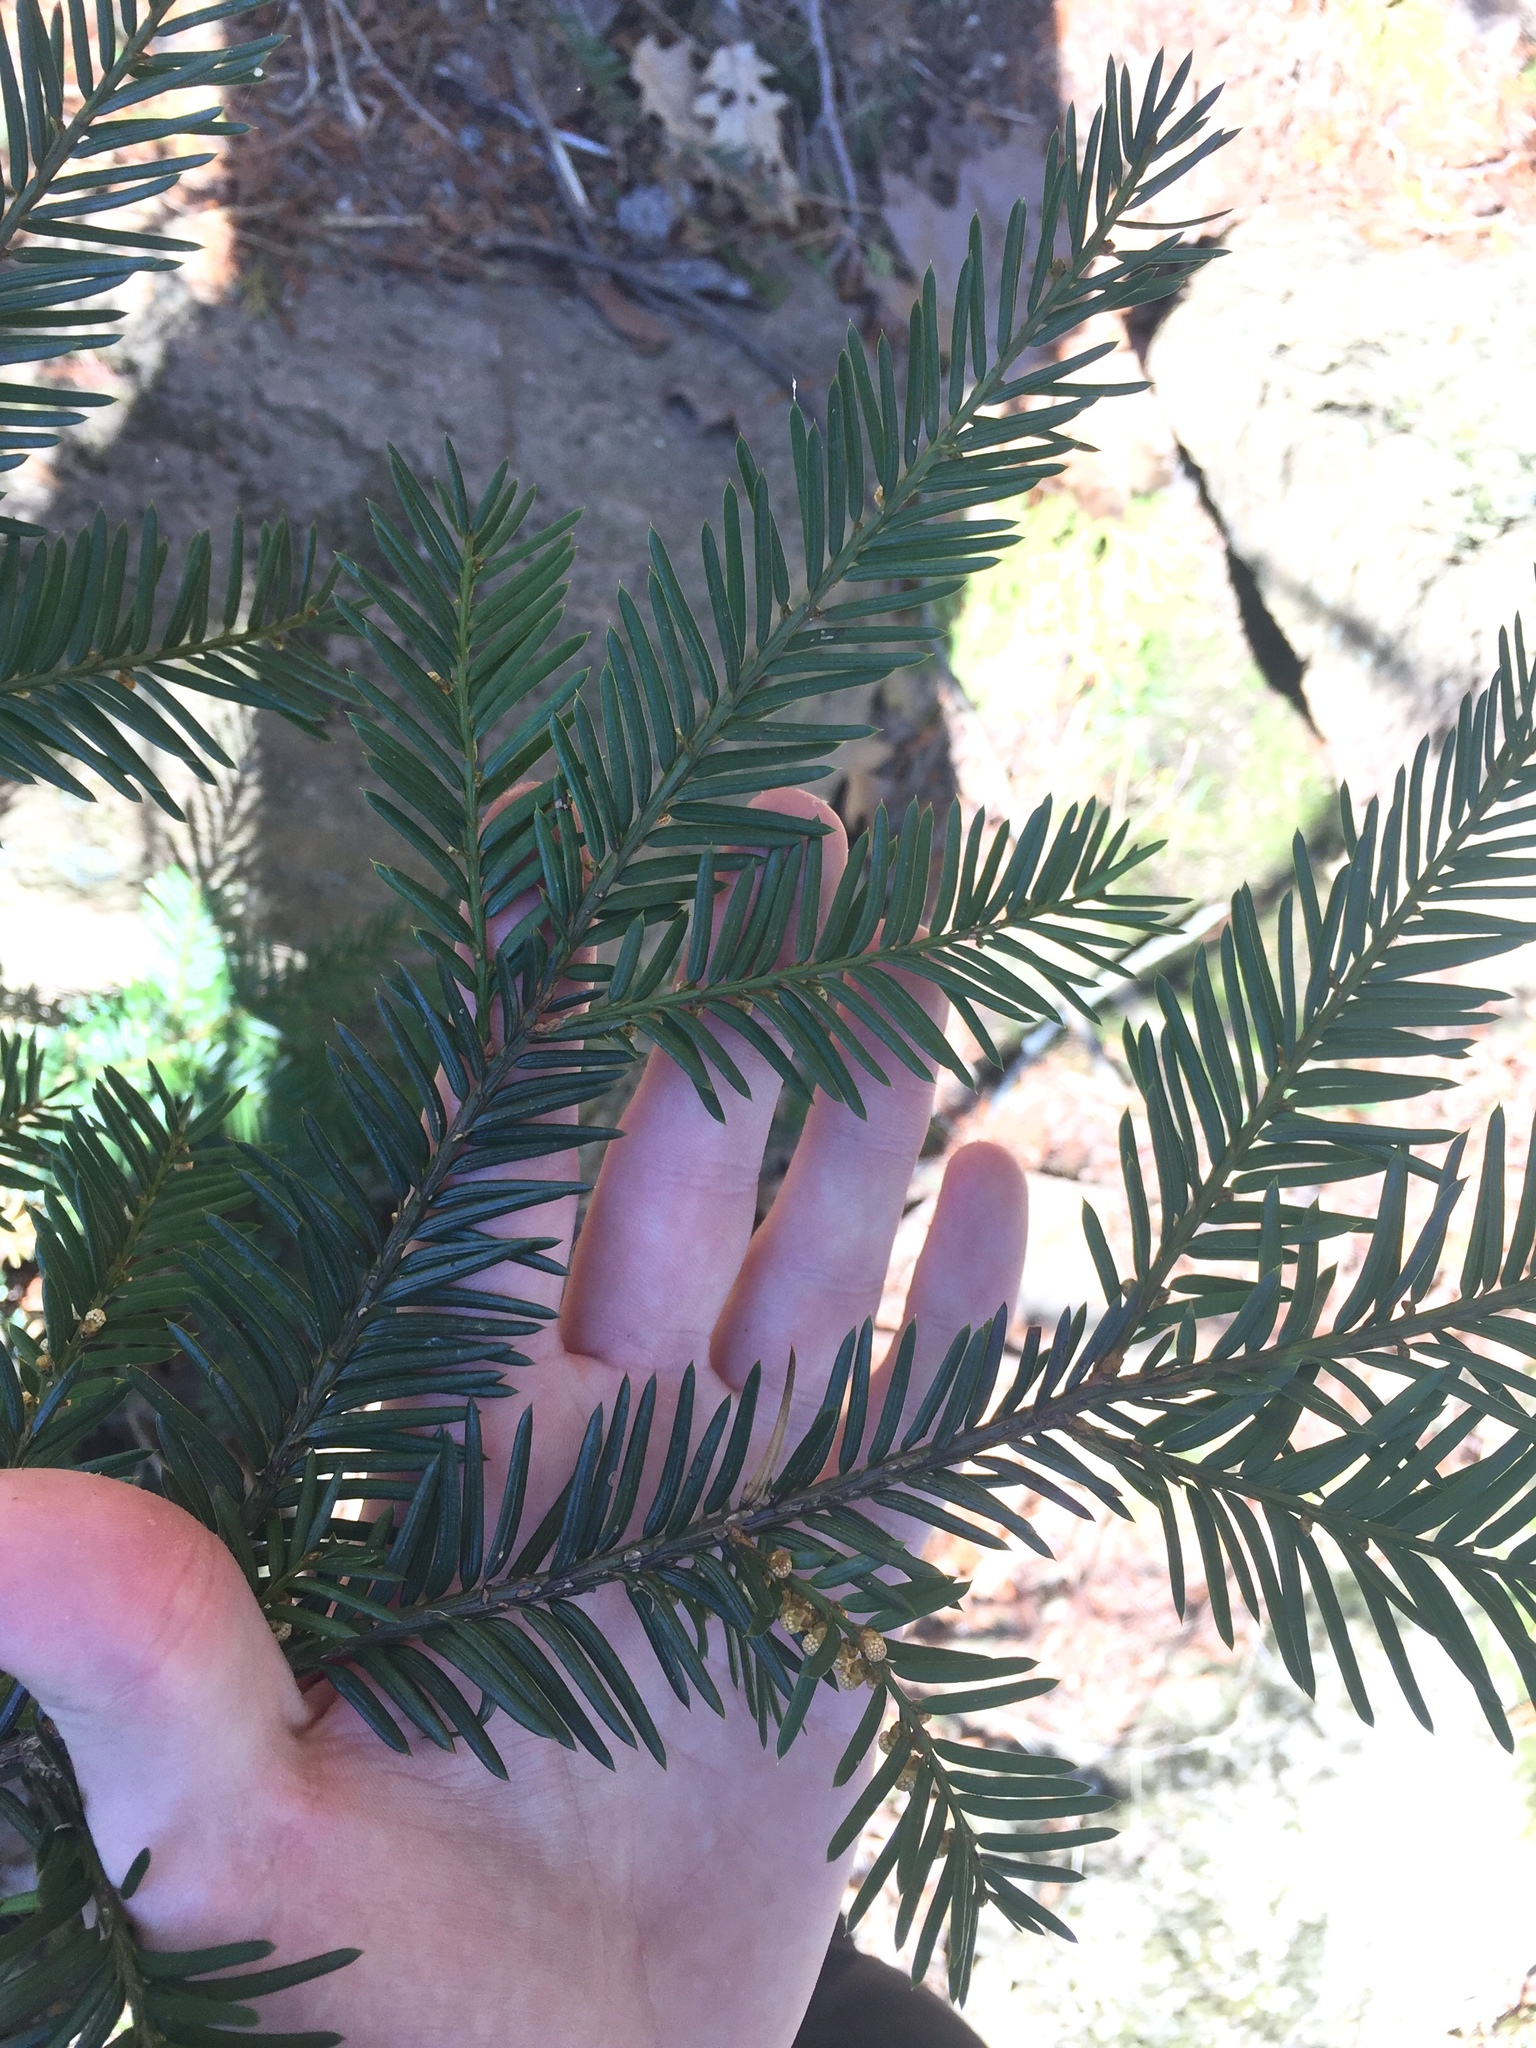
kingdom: Plantae
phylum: Tracheophyta
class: Pinopsida
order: Pinales
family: Taxaceae
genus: Taxus
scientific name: Taxus canadensis
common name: American yew
